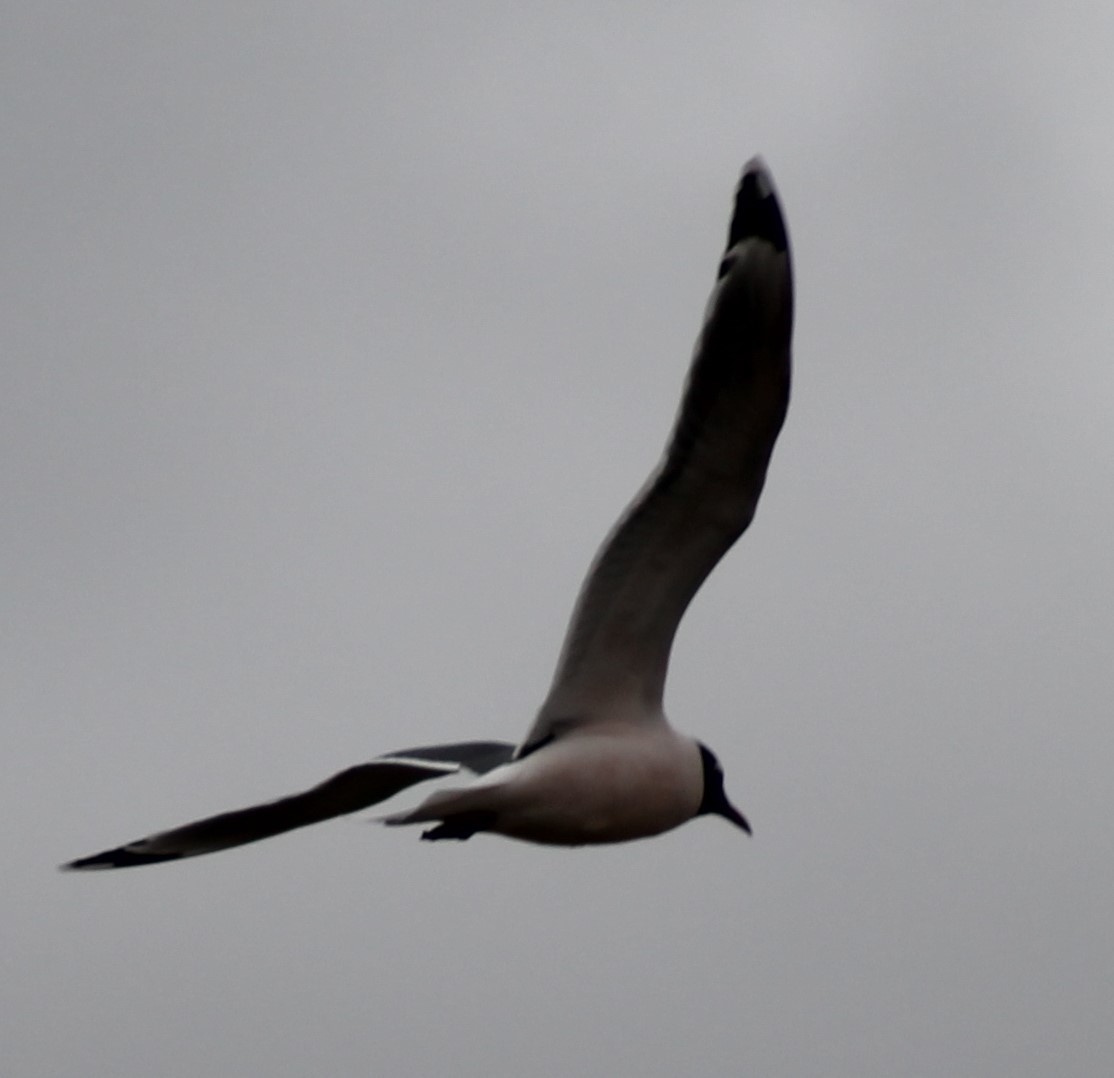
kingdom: Animalia
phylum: Chordata
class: Aves
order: Charadriiformes
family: Laridae
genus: Leucophaeus
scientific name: Leucophaeus pipixcan
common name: Franklin's gull
